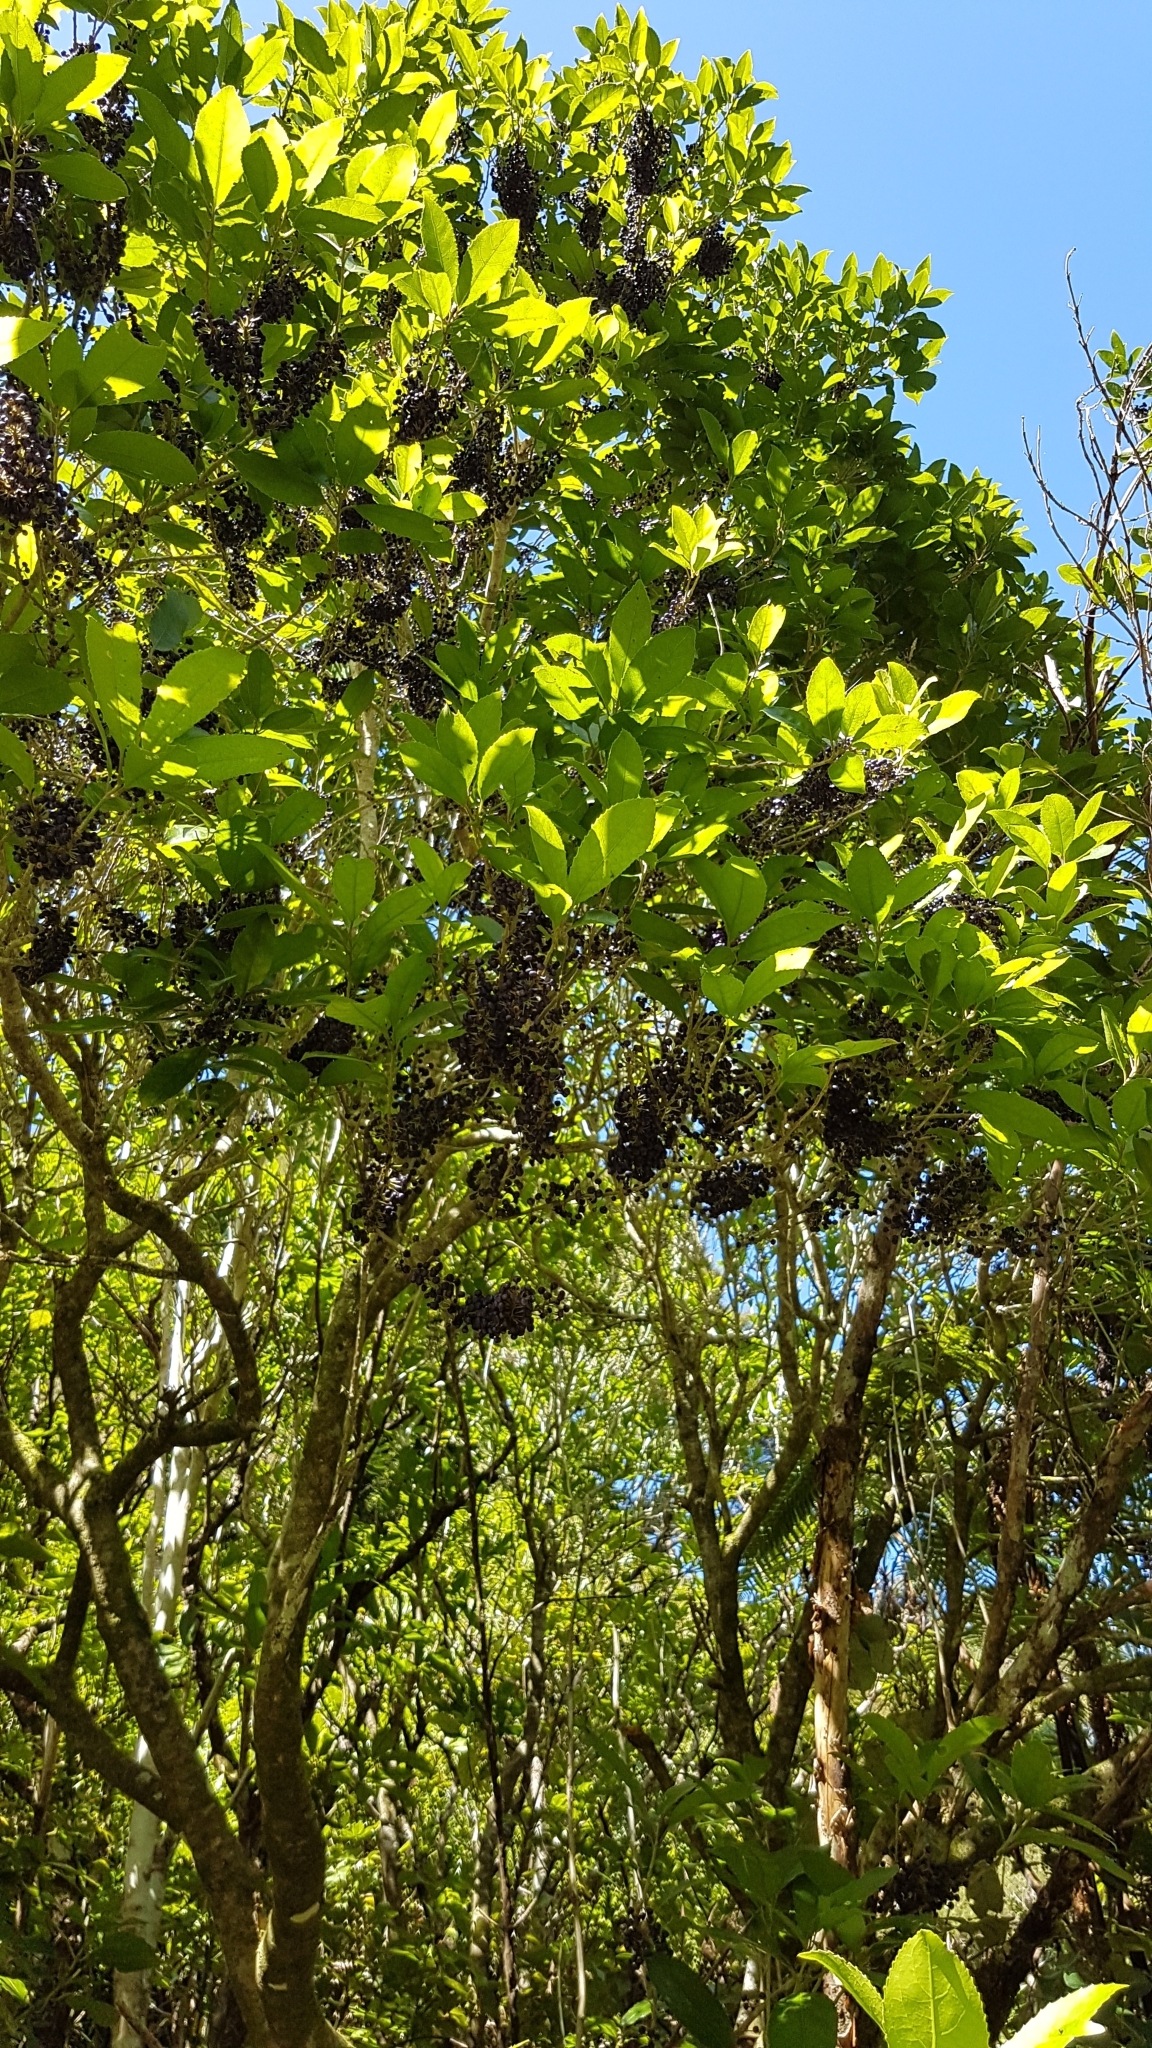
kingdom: Plantae
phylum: Tracheophyta
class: Magnoliopsida
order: Malpighiales
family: Violaceae
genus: Melicytus
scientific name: Melicytus ramiflorus
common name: Mahoe
